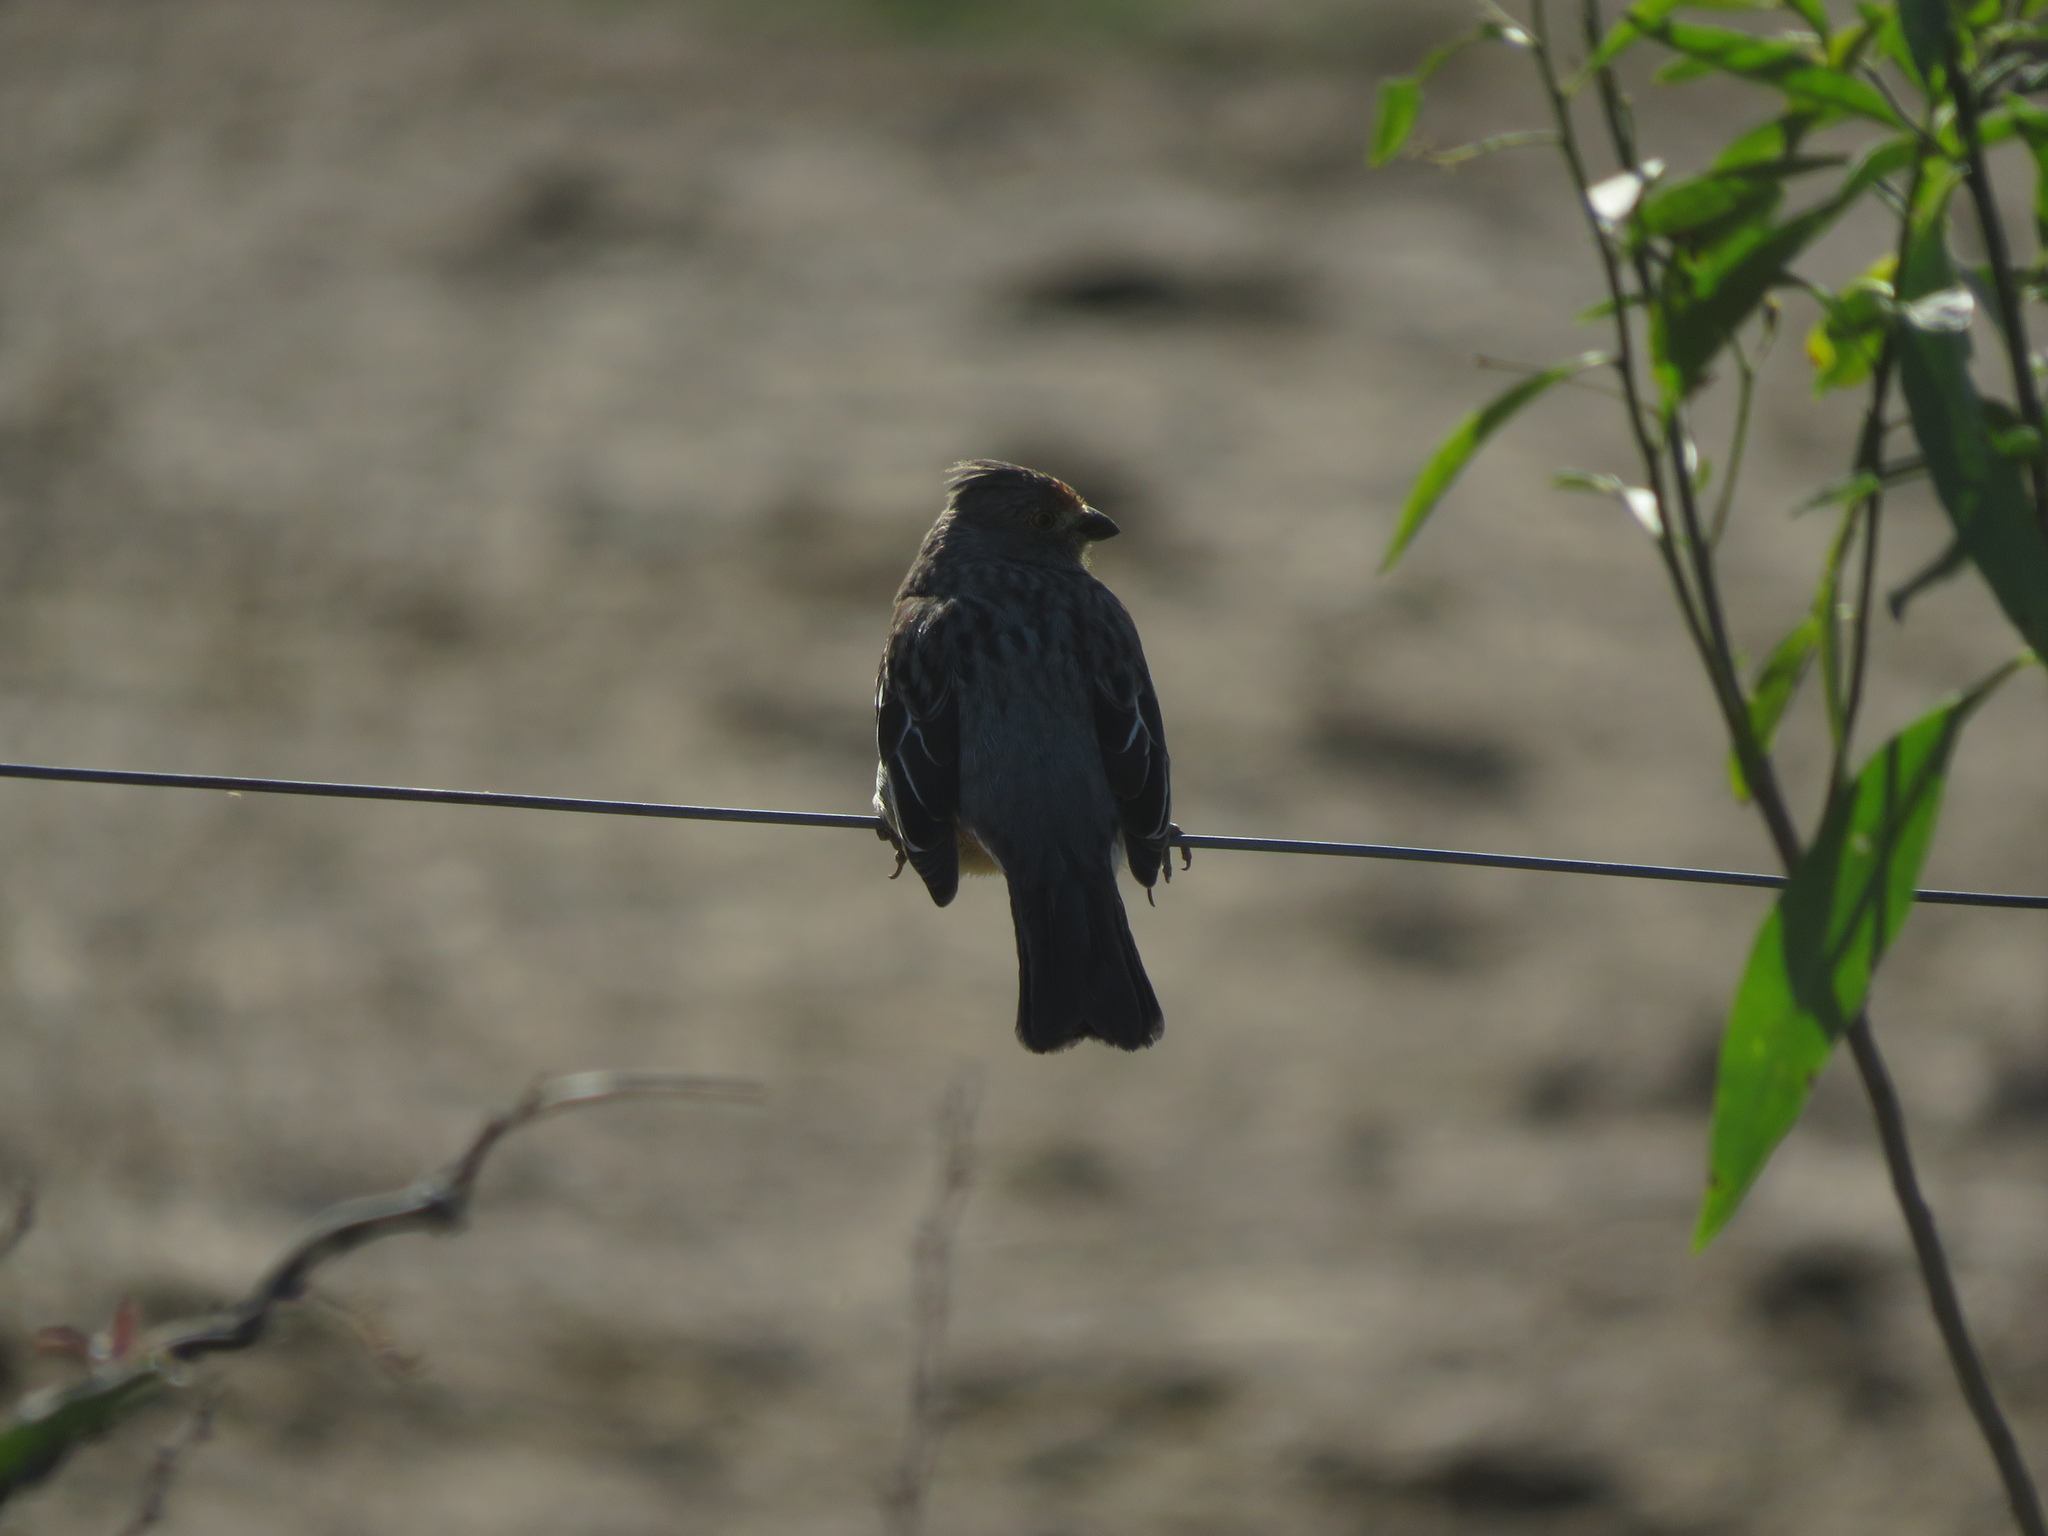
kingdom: Animalia
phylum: Chordata
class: Aves
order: Passeriformes
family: Cotingidae
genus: Phytotoma
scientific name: Phytotoma rutila
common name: White-tipped plantcutter
